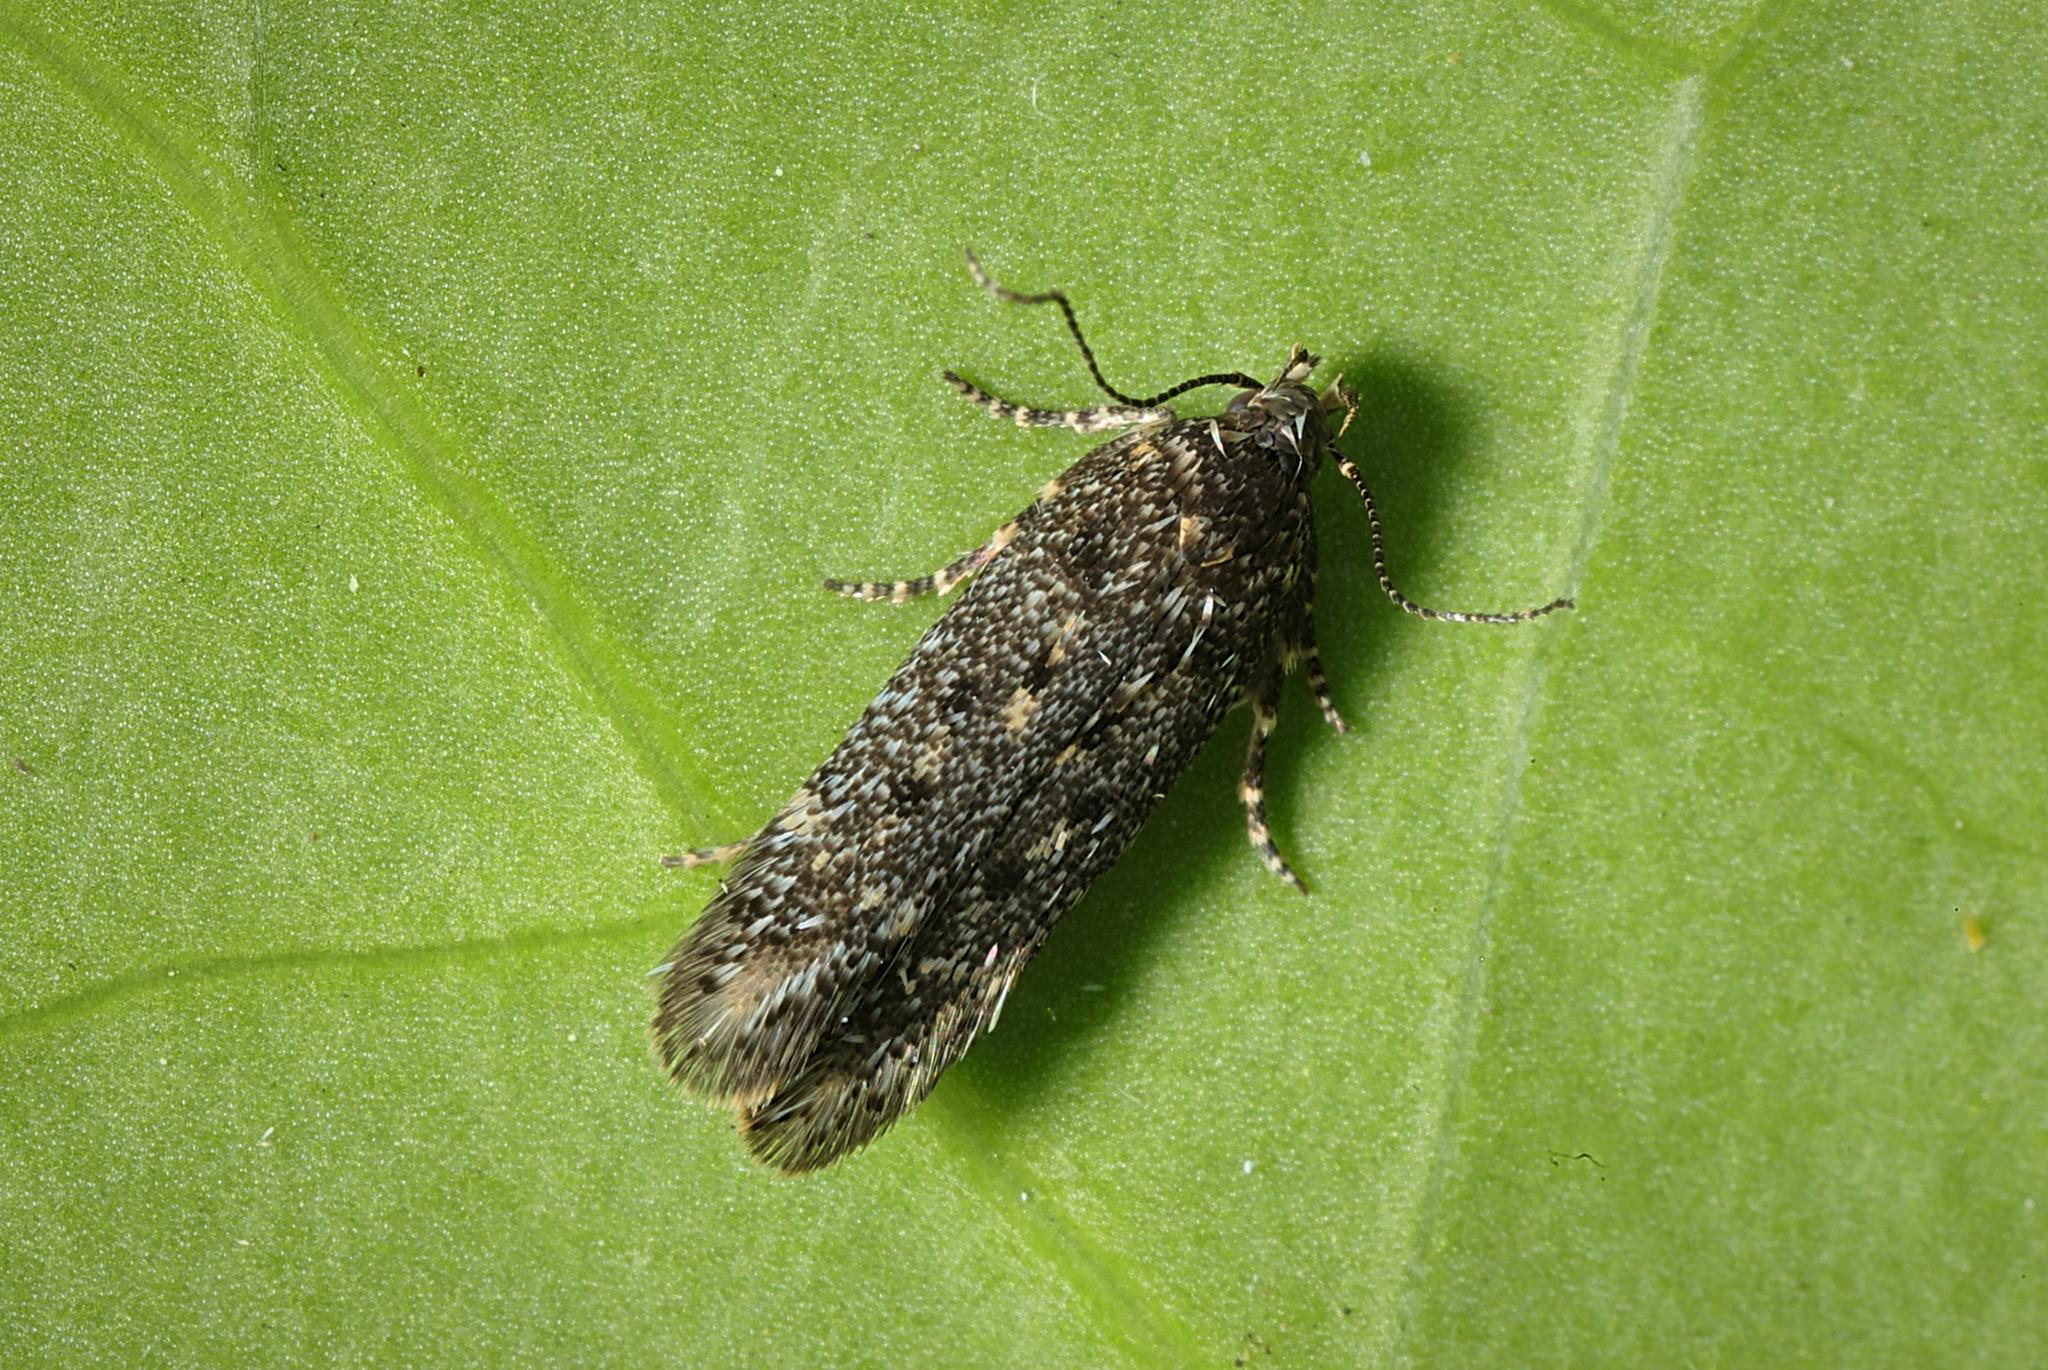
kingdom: Animalia
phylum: Arthropoda
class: Insecta
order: Lepidoptera
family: Gelechiidae
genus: Bryotropha
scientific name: Bryotropha affinis
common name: Dark groundling
